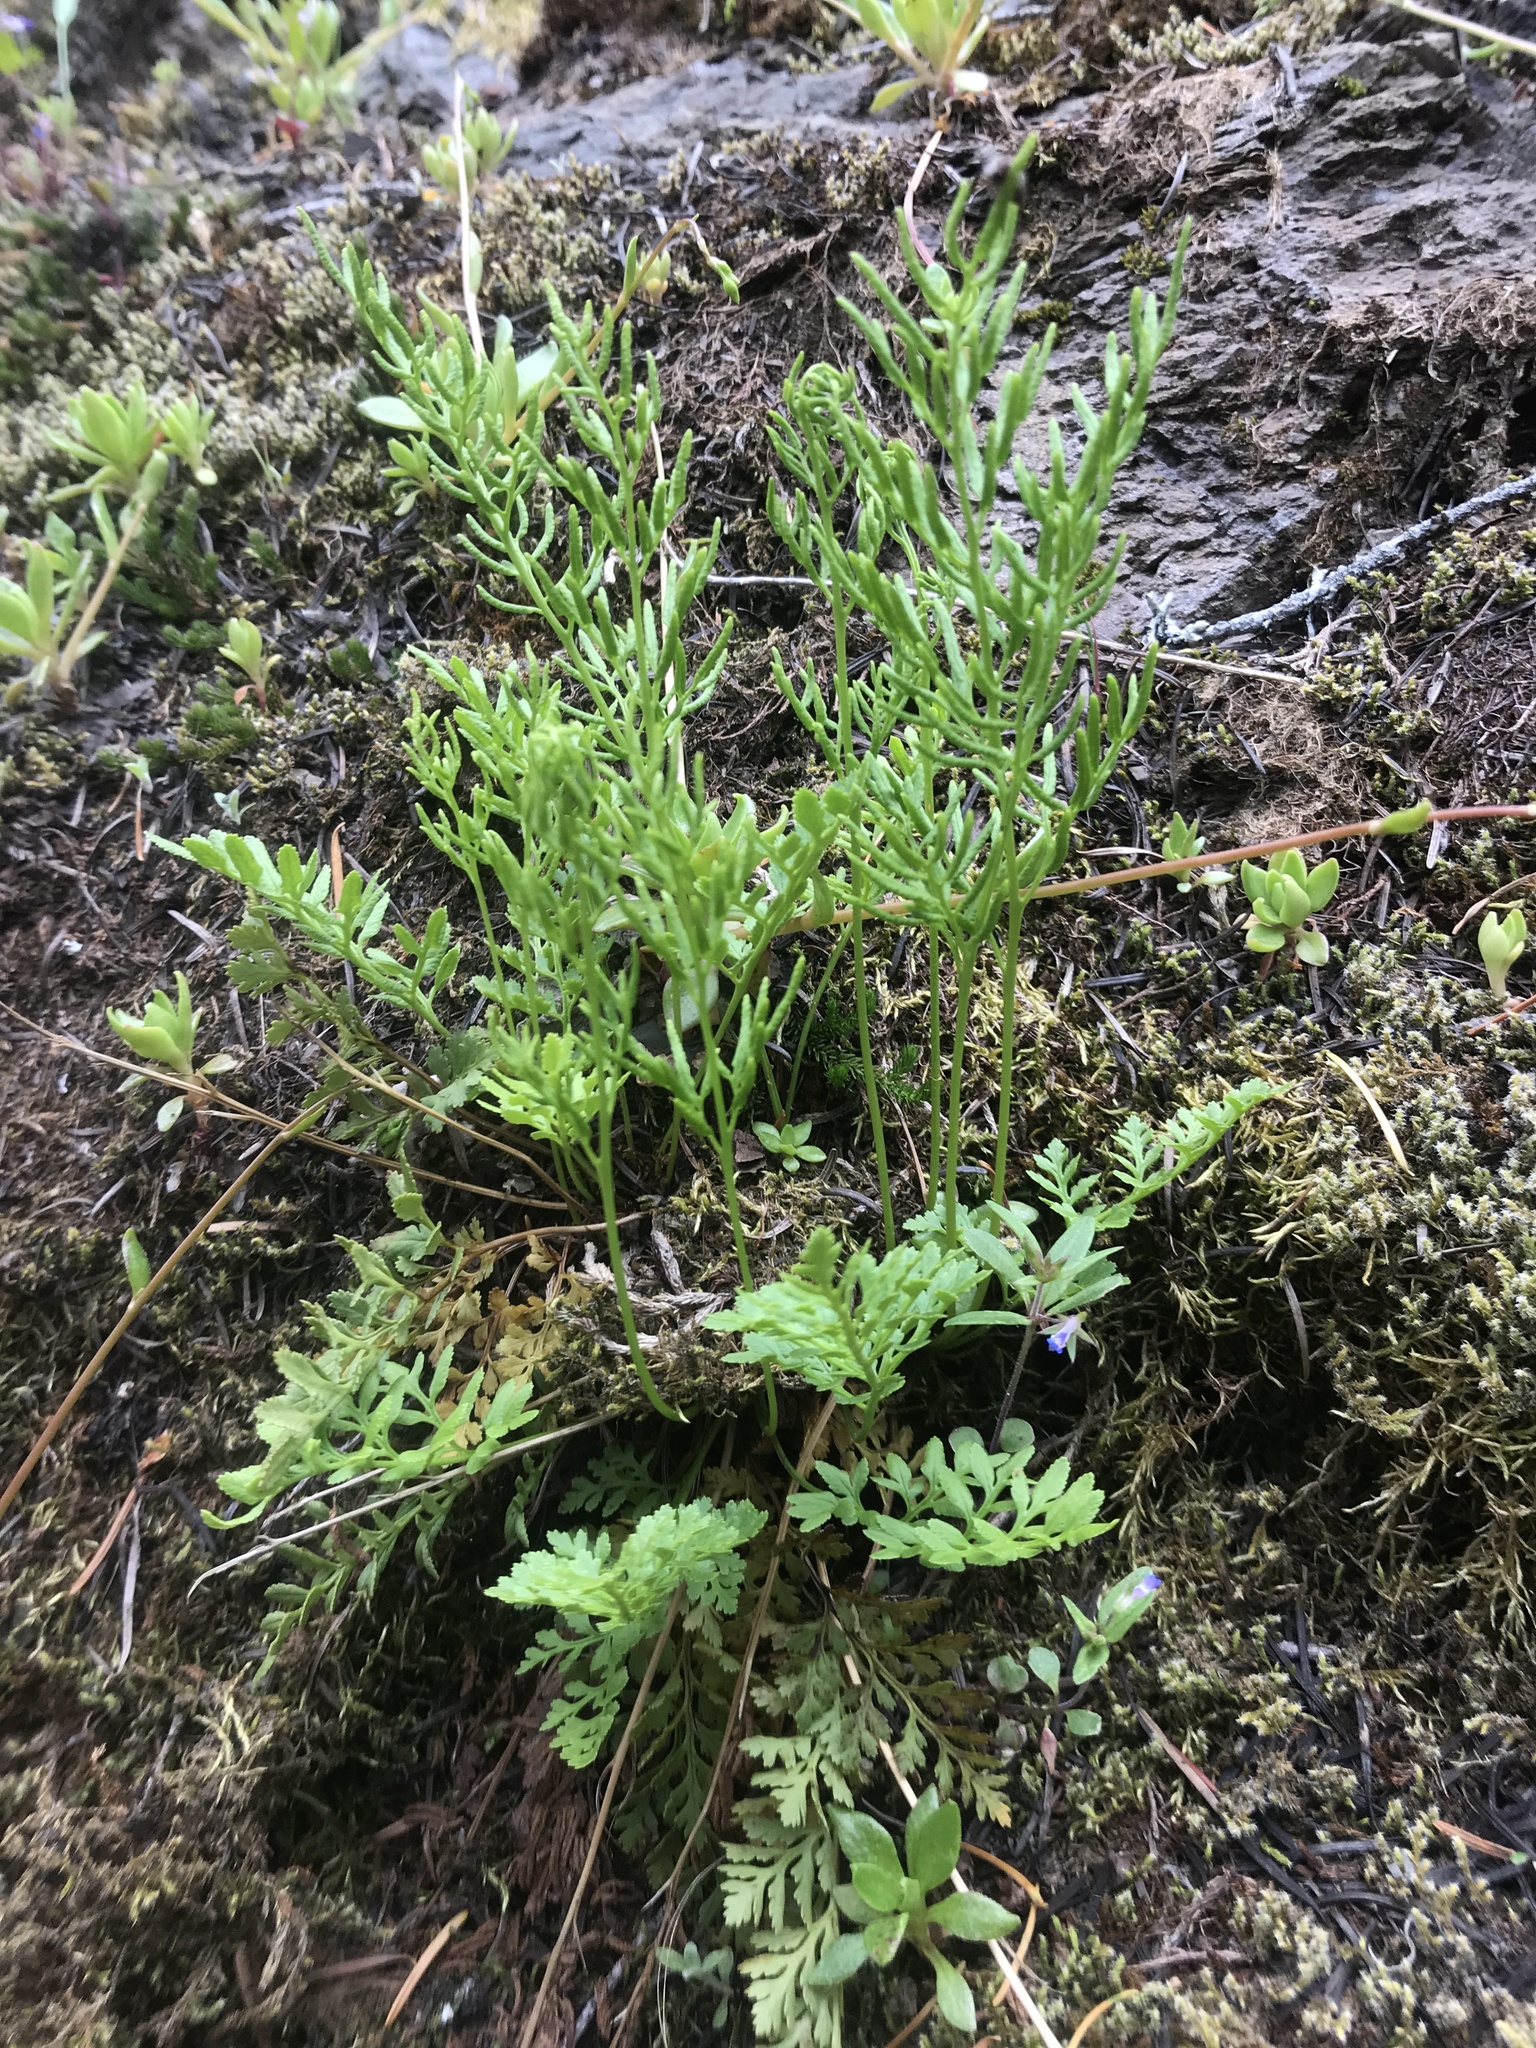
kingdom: Plantae
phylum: Tracheophyta
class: Polypodiopsida
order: Polypodiales
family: Pteridaceae
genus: Cryptogramma
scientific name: Cryptogramma acrostichoides
